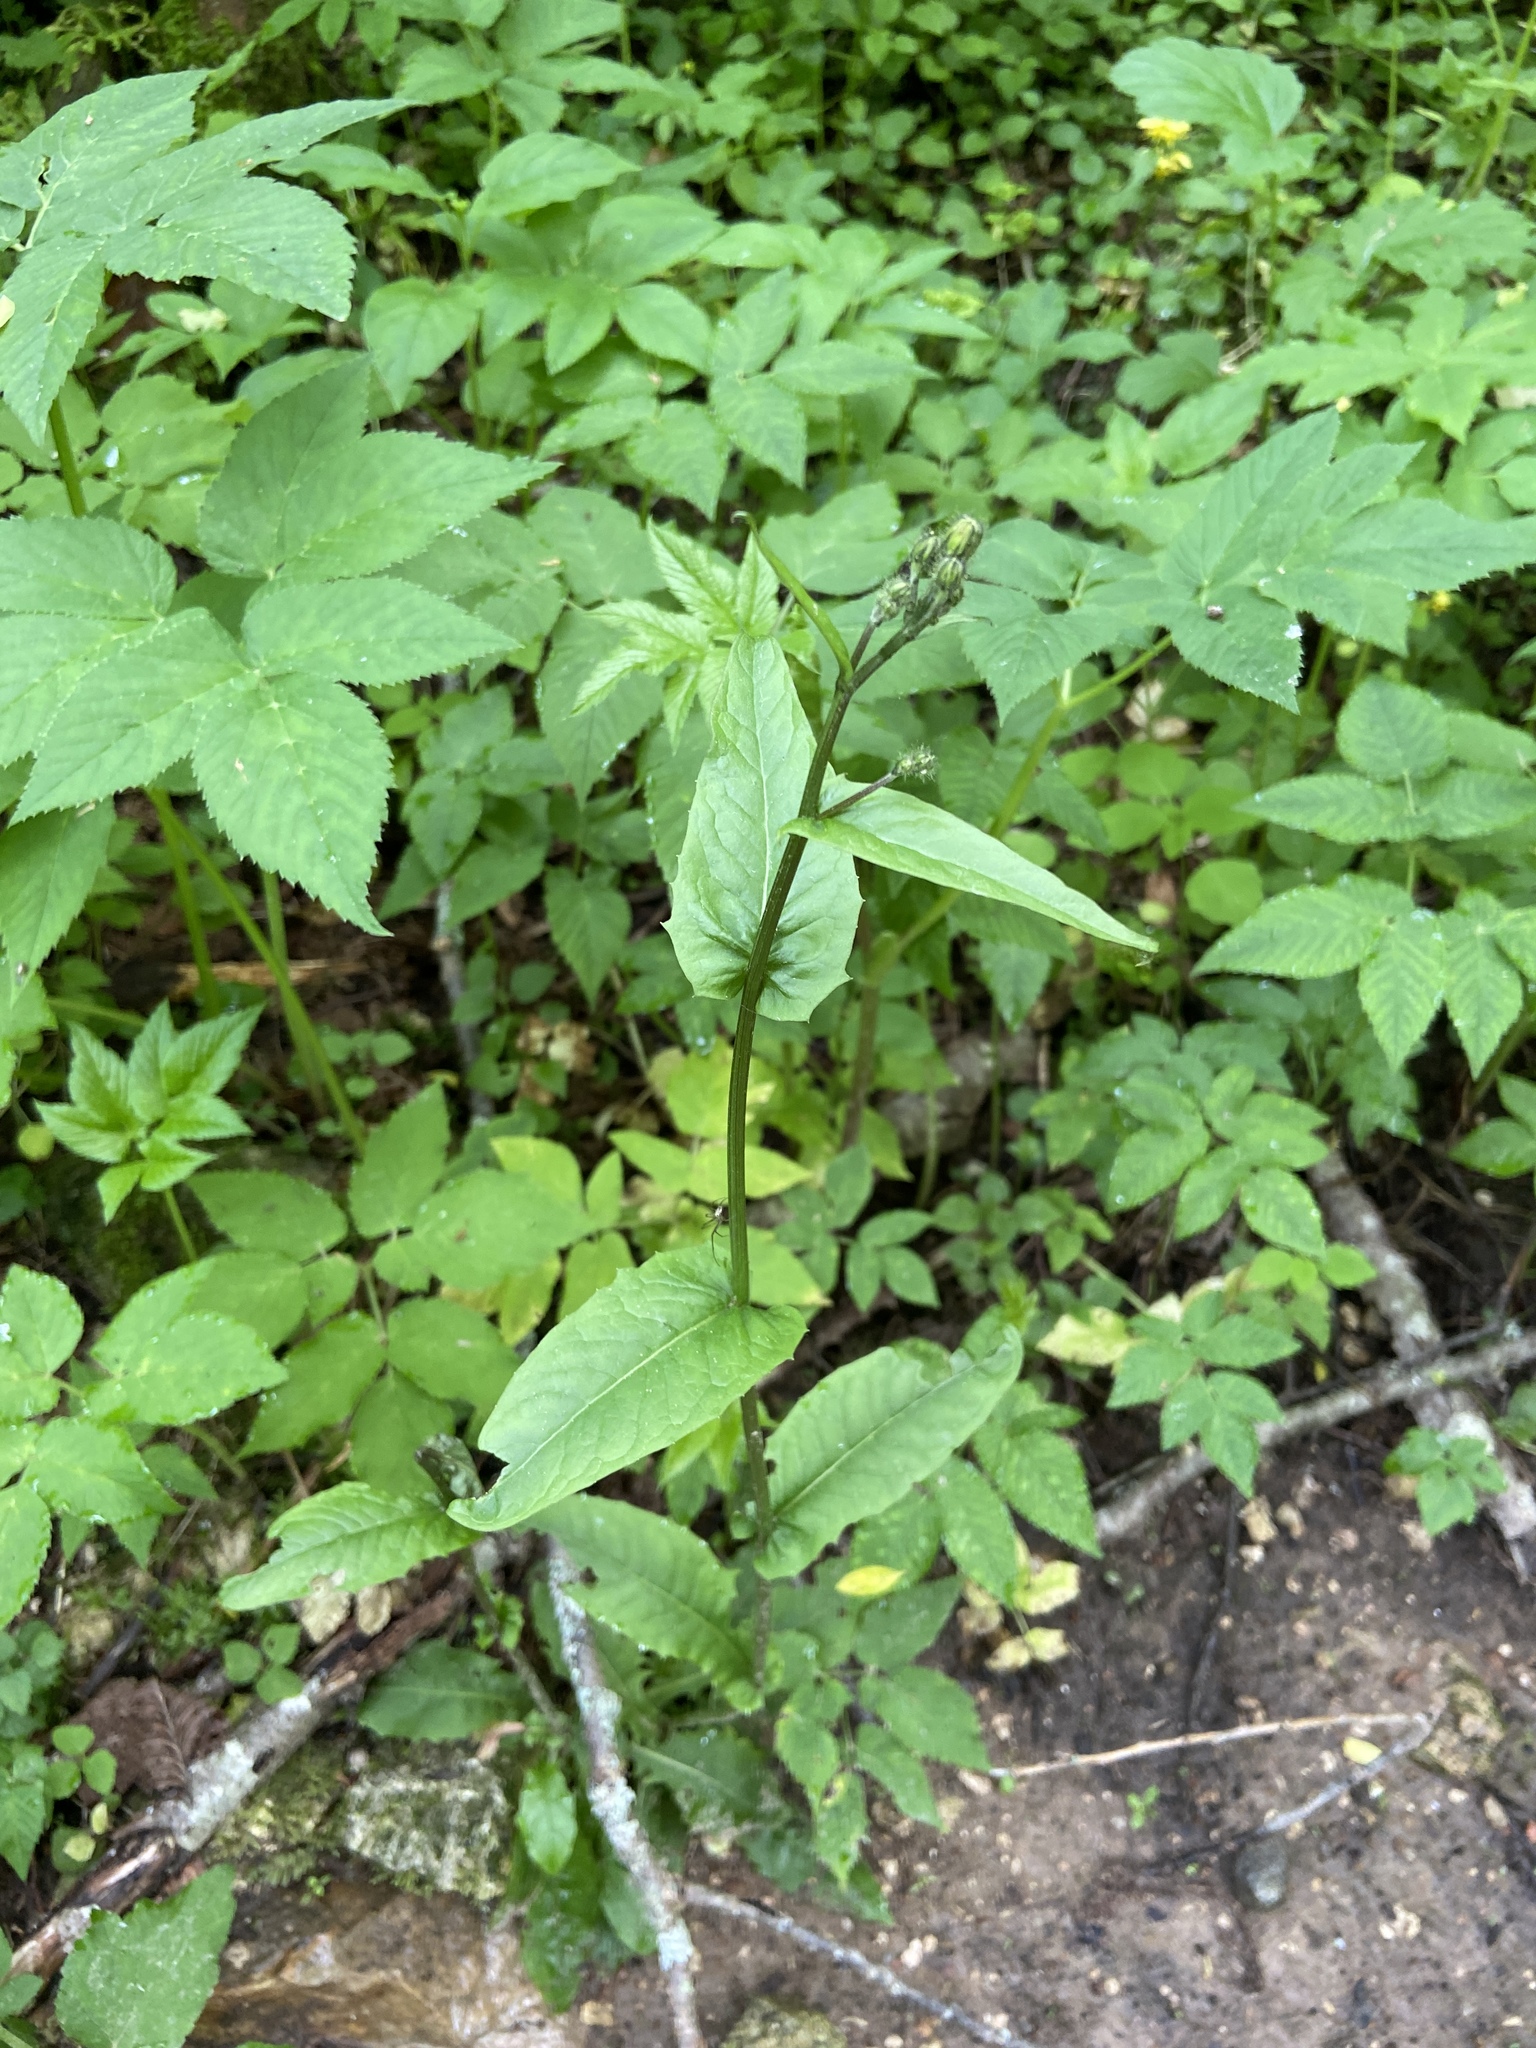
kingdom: Plantae
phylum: Tracheophyta
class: Magnoliopsida
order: Asterales
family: Asteraceae
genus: Crepis
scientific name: Crepis paludosa
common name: Marsh hawk's-beard
